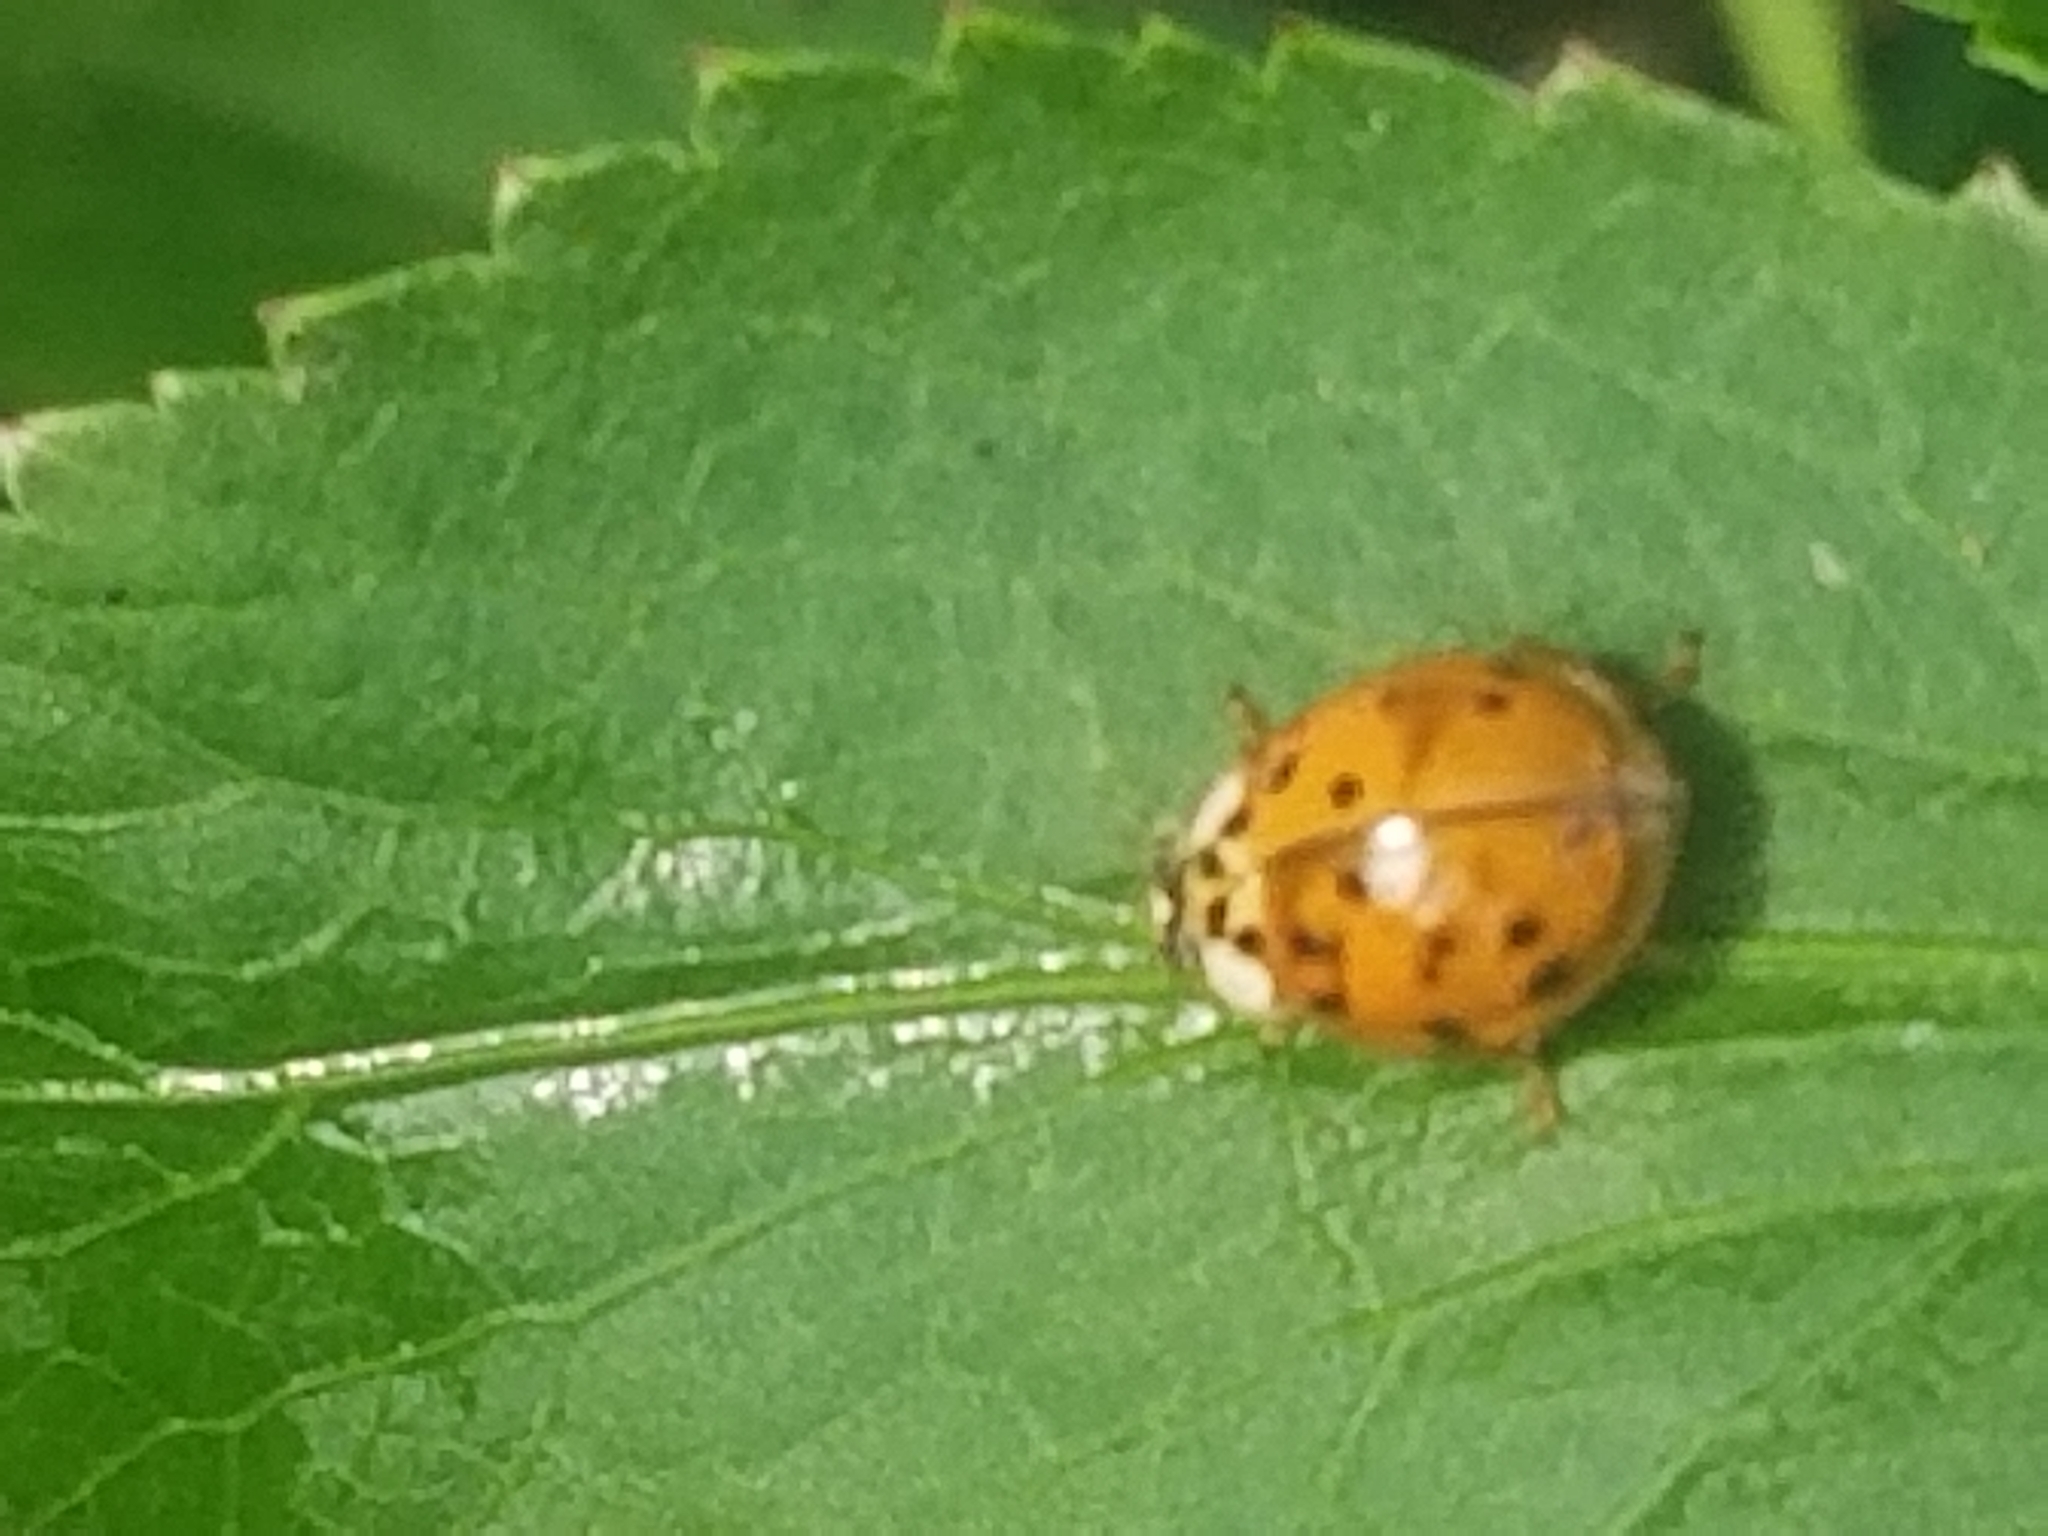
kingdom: Animalia
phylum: Arthropoda
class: Insecta
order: Coleoptera
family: Coccinellidae
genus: Harmonia
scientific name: Harmonia axyridis
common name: Harlequin ladybird
